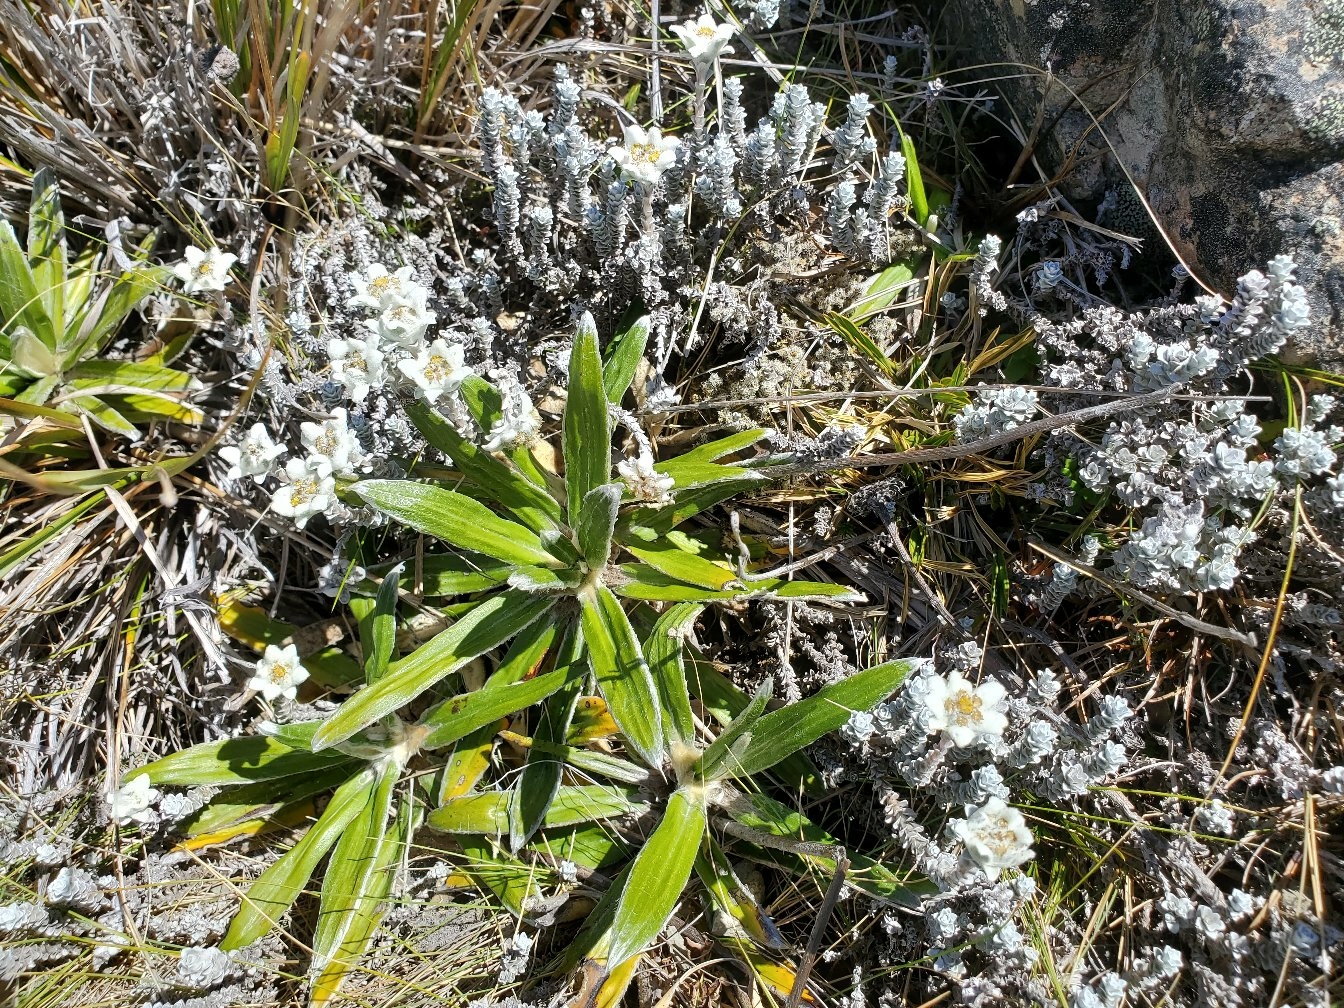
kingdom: Plantae
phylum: Tracheophyta
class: Magnoliopsida
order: Asterales
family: Asteraceae
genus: Celmisia
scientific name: Celmisia spectabilis
